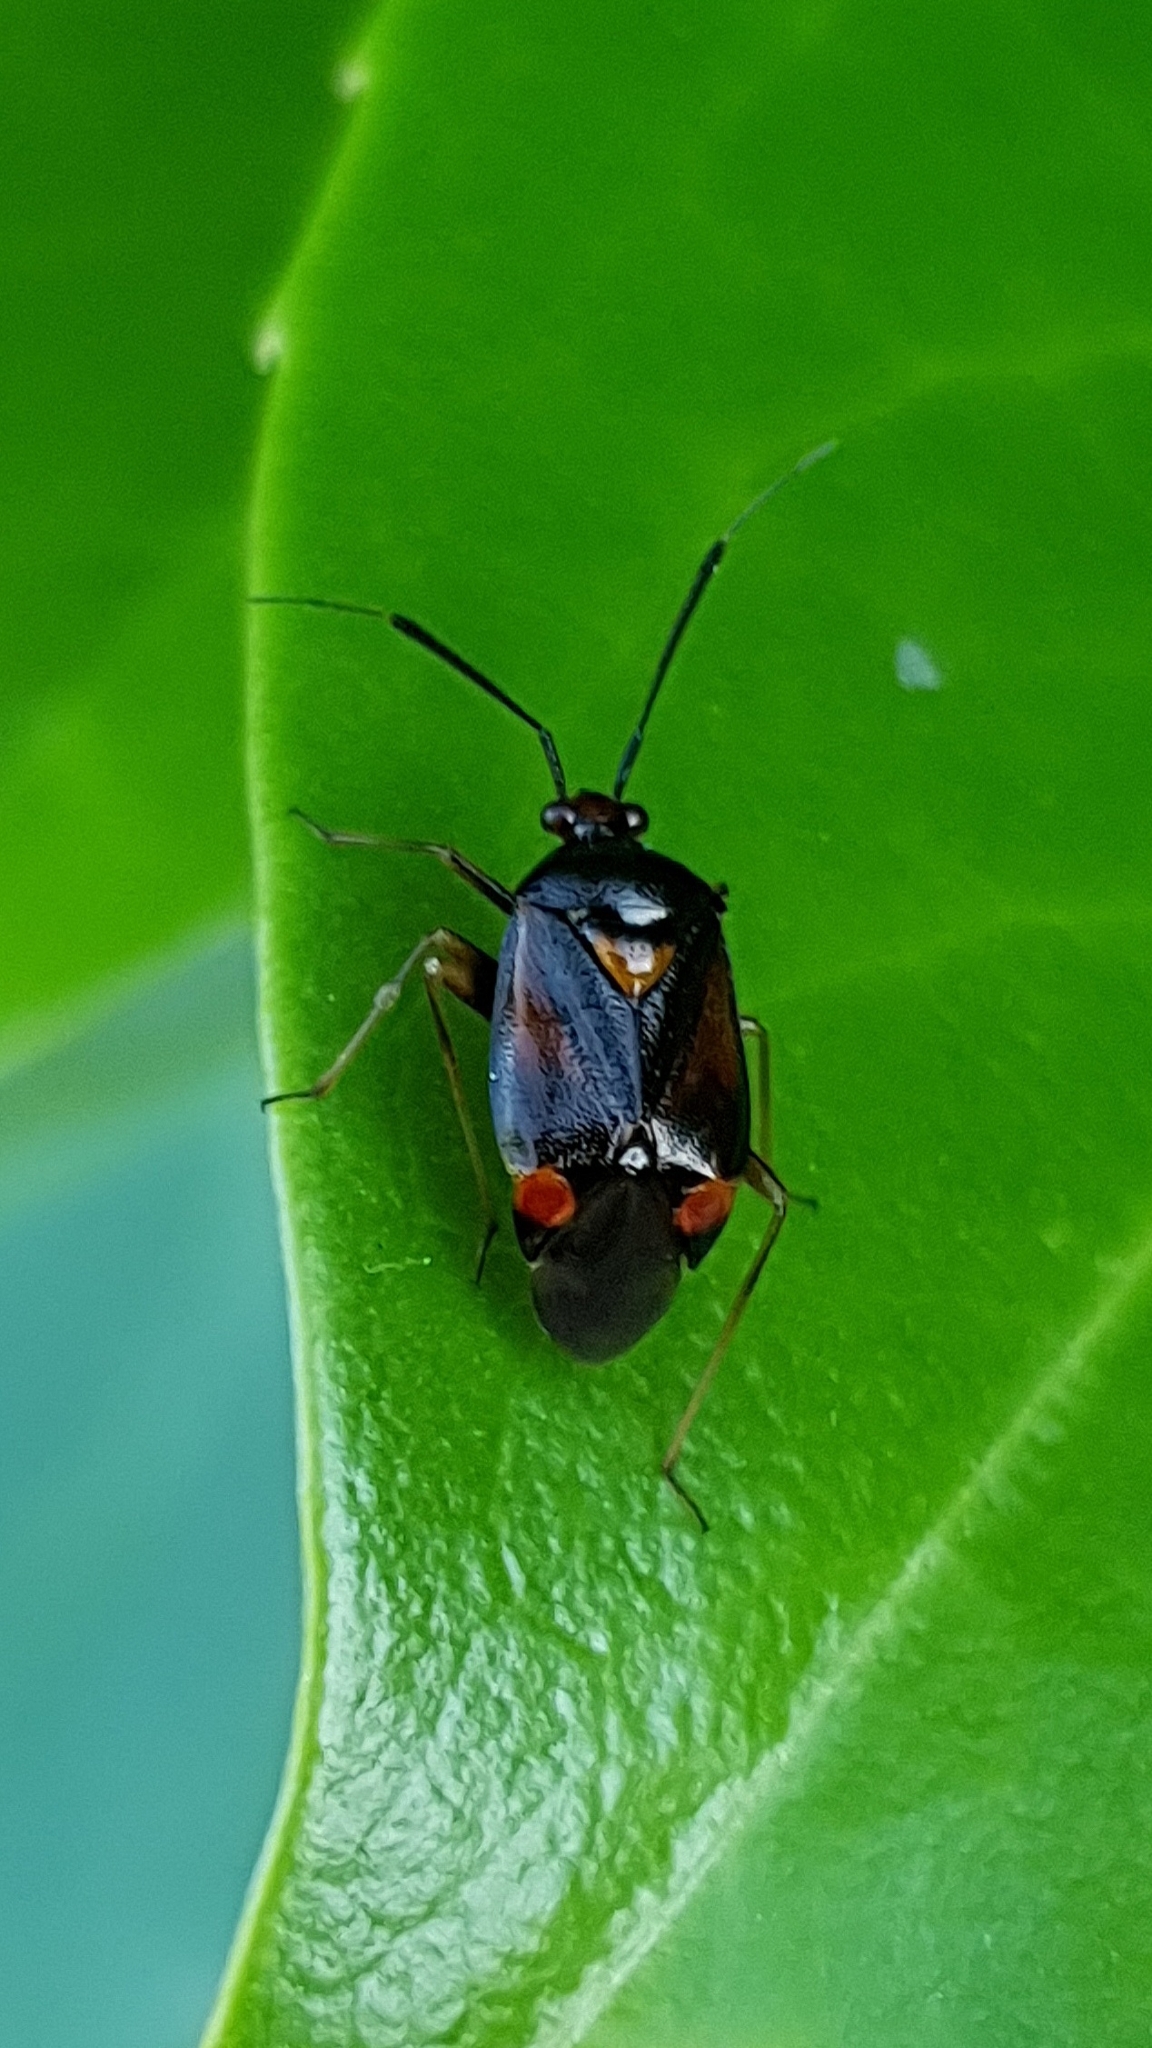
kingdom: Animalia
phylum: Arthropoda
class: Insecta
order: Hemiptera
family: Miridae
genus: Deraeocoris
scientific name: Deraeocoris ruber
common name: Plant bug
